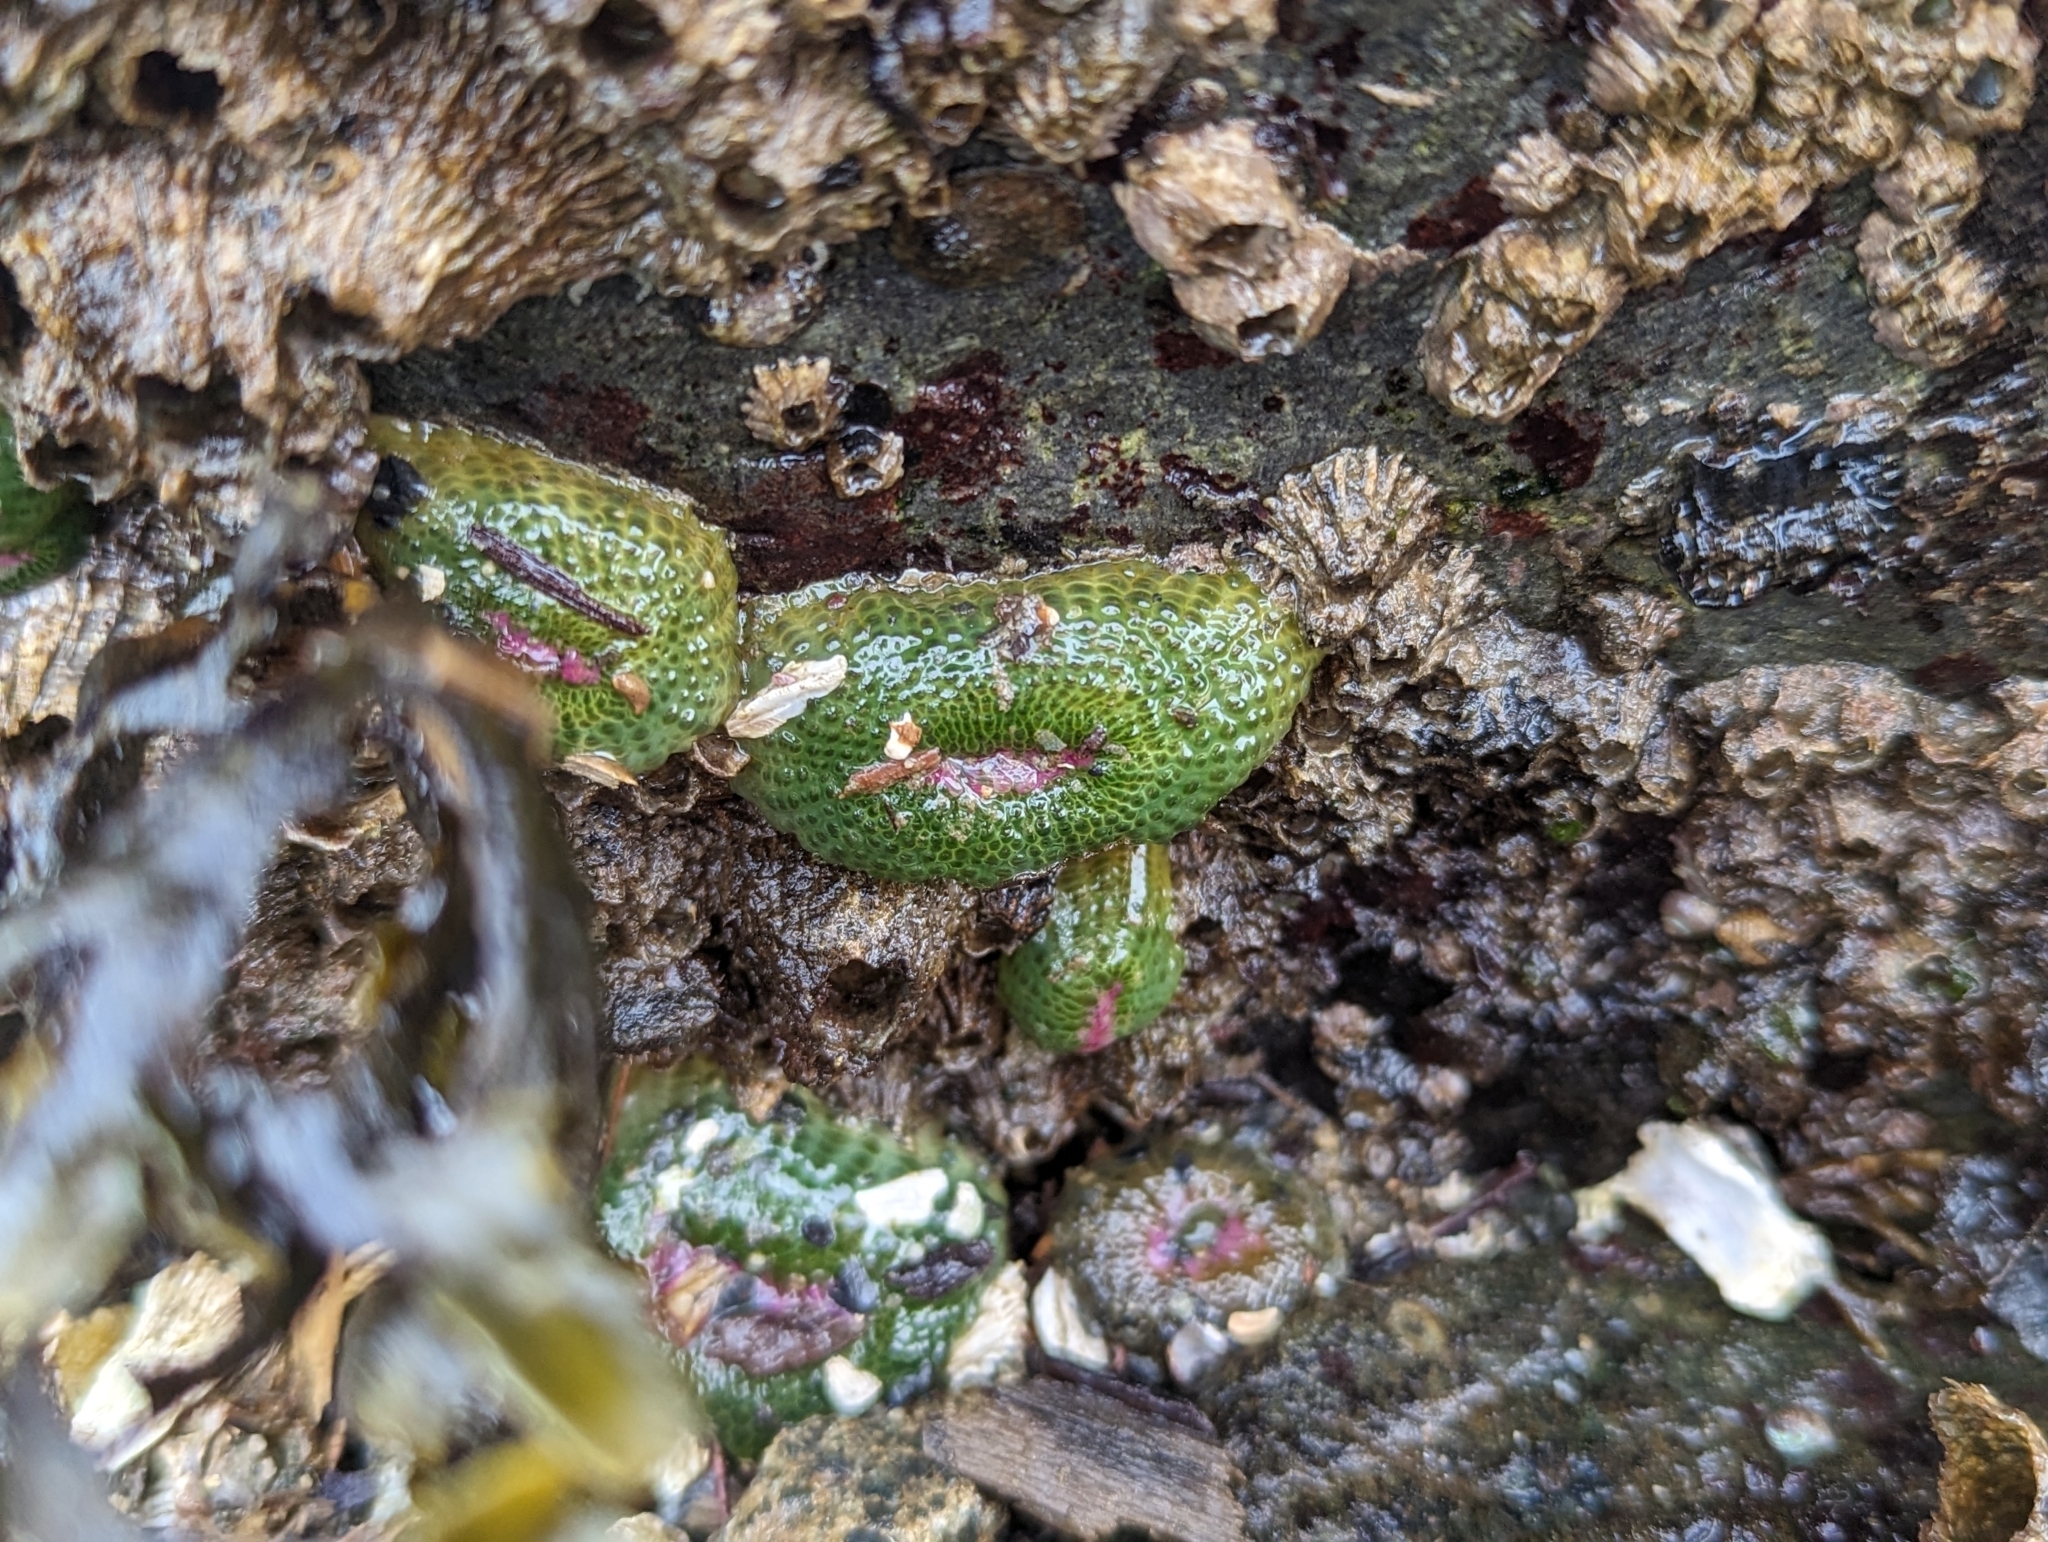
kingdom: Animalia
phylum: Cnidaria
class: Anthozoa
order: Actiniaria
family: Actiniidae
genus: Anthopleura
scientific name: Anthopleura elegantissima
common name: Clonal anemone
